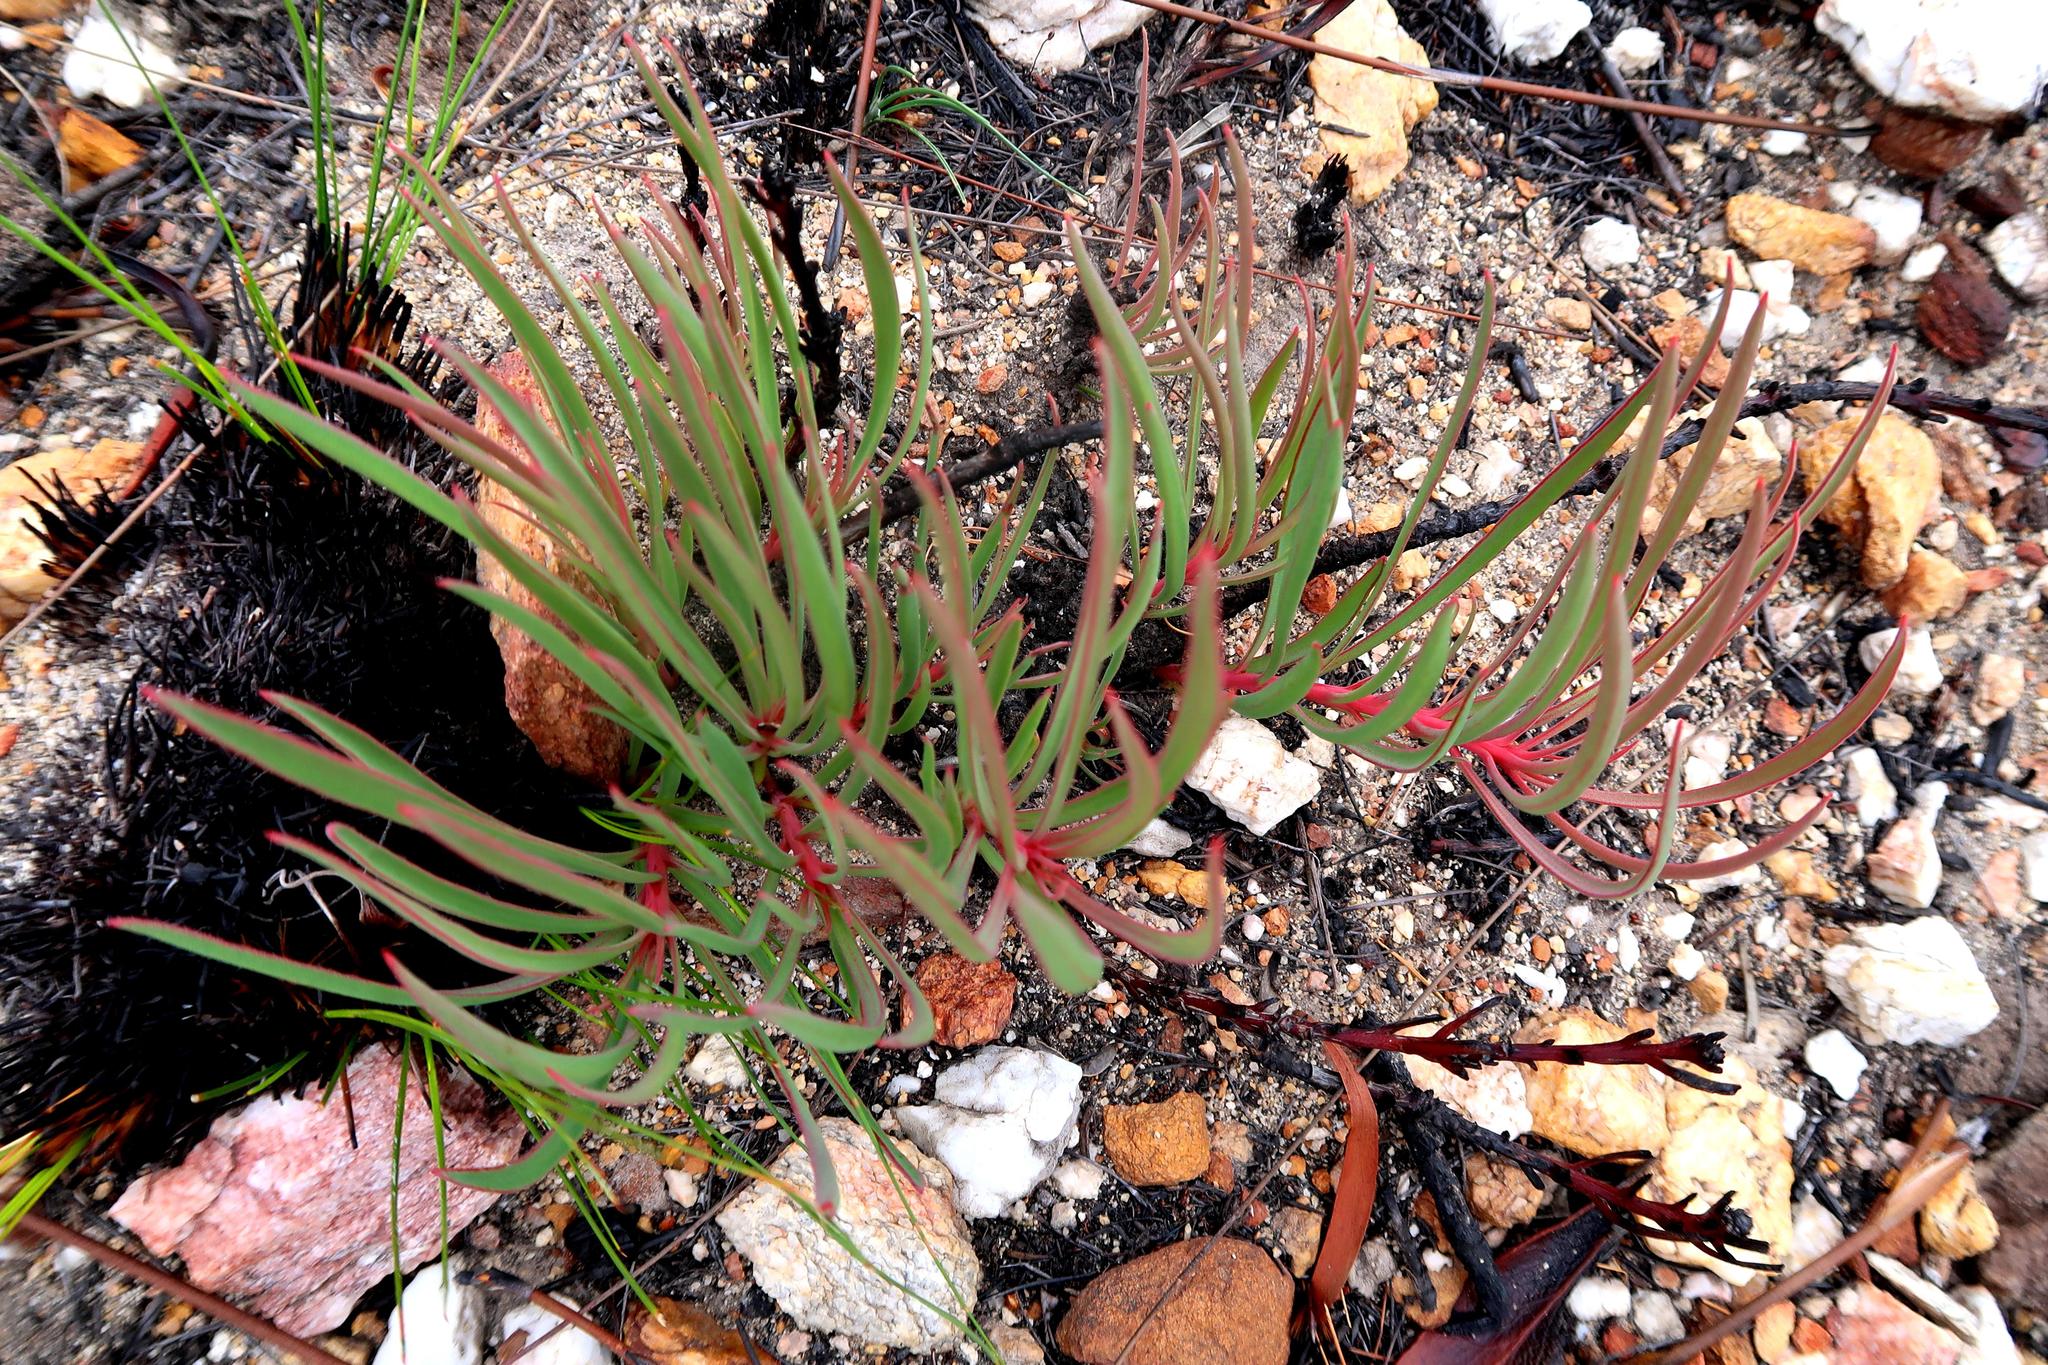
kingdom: Plantae
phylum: Tracheophyta
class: Magnoliopsida
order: Proteales
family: Proteaceae
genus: Protea
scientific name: Protea tenax
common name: Tenacious sugarbush
